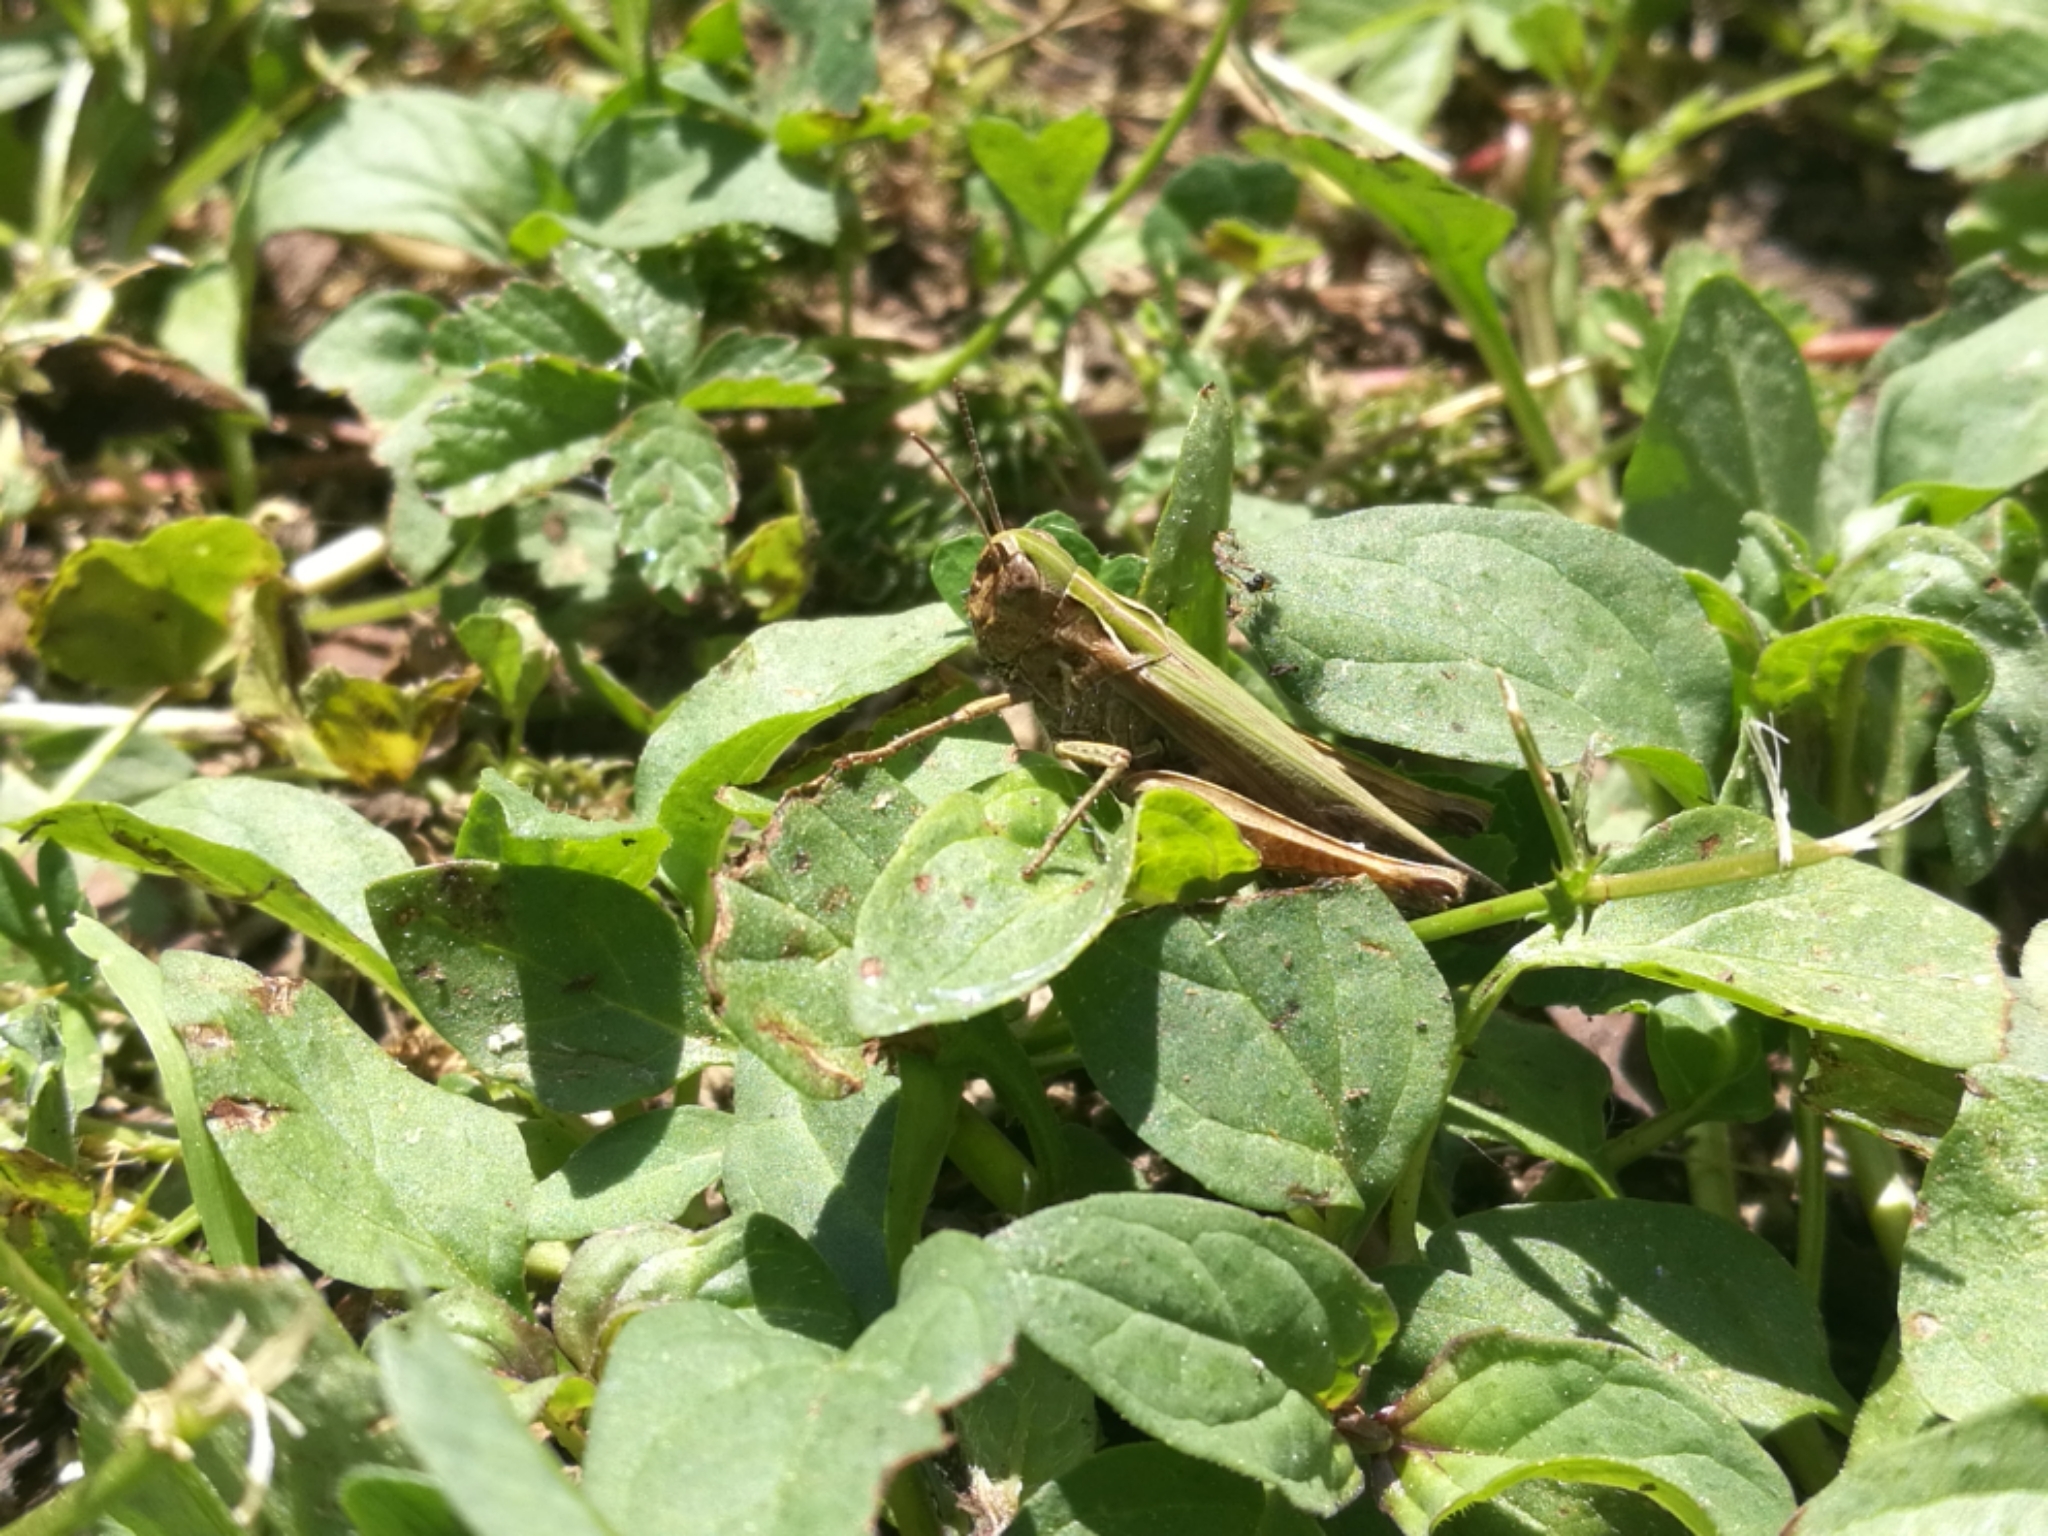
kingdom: Animalia
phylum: Arthropoda
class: Insecta
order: Orthoptera
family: Acrididae
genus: Omocestus
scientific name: Omocestus rufipes
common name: Woodland grasshopper
